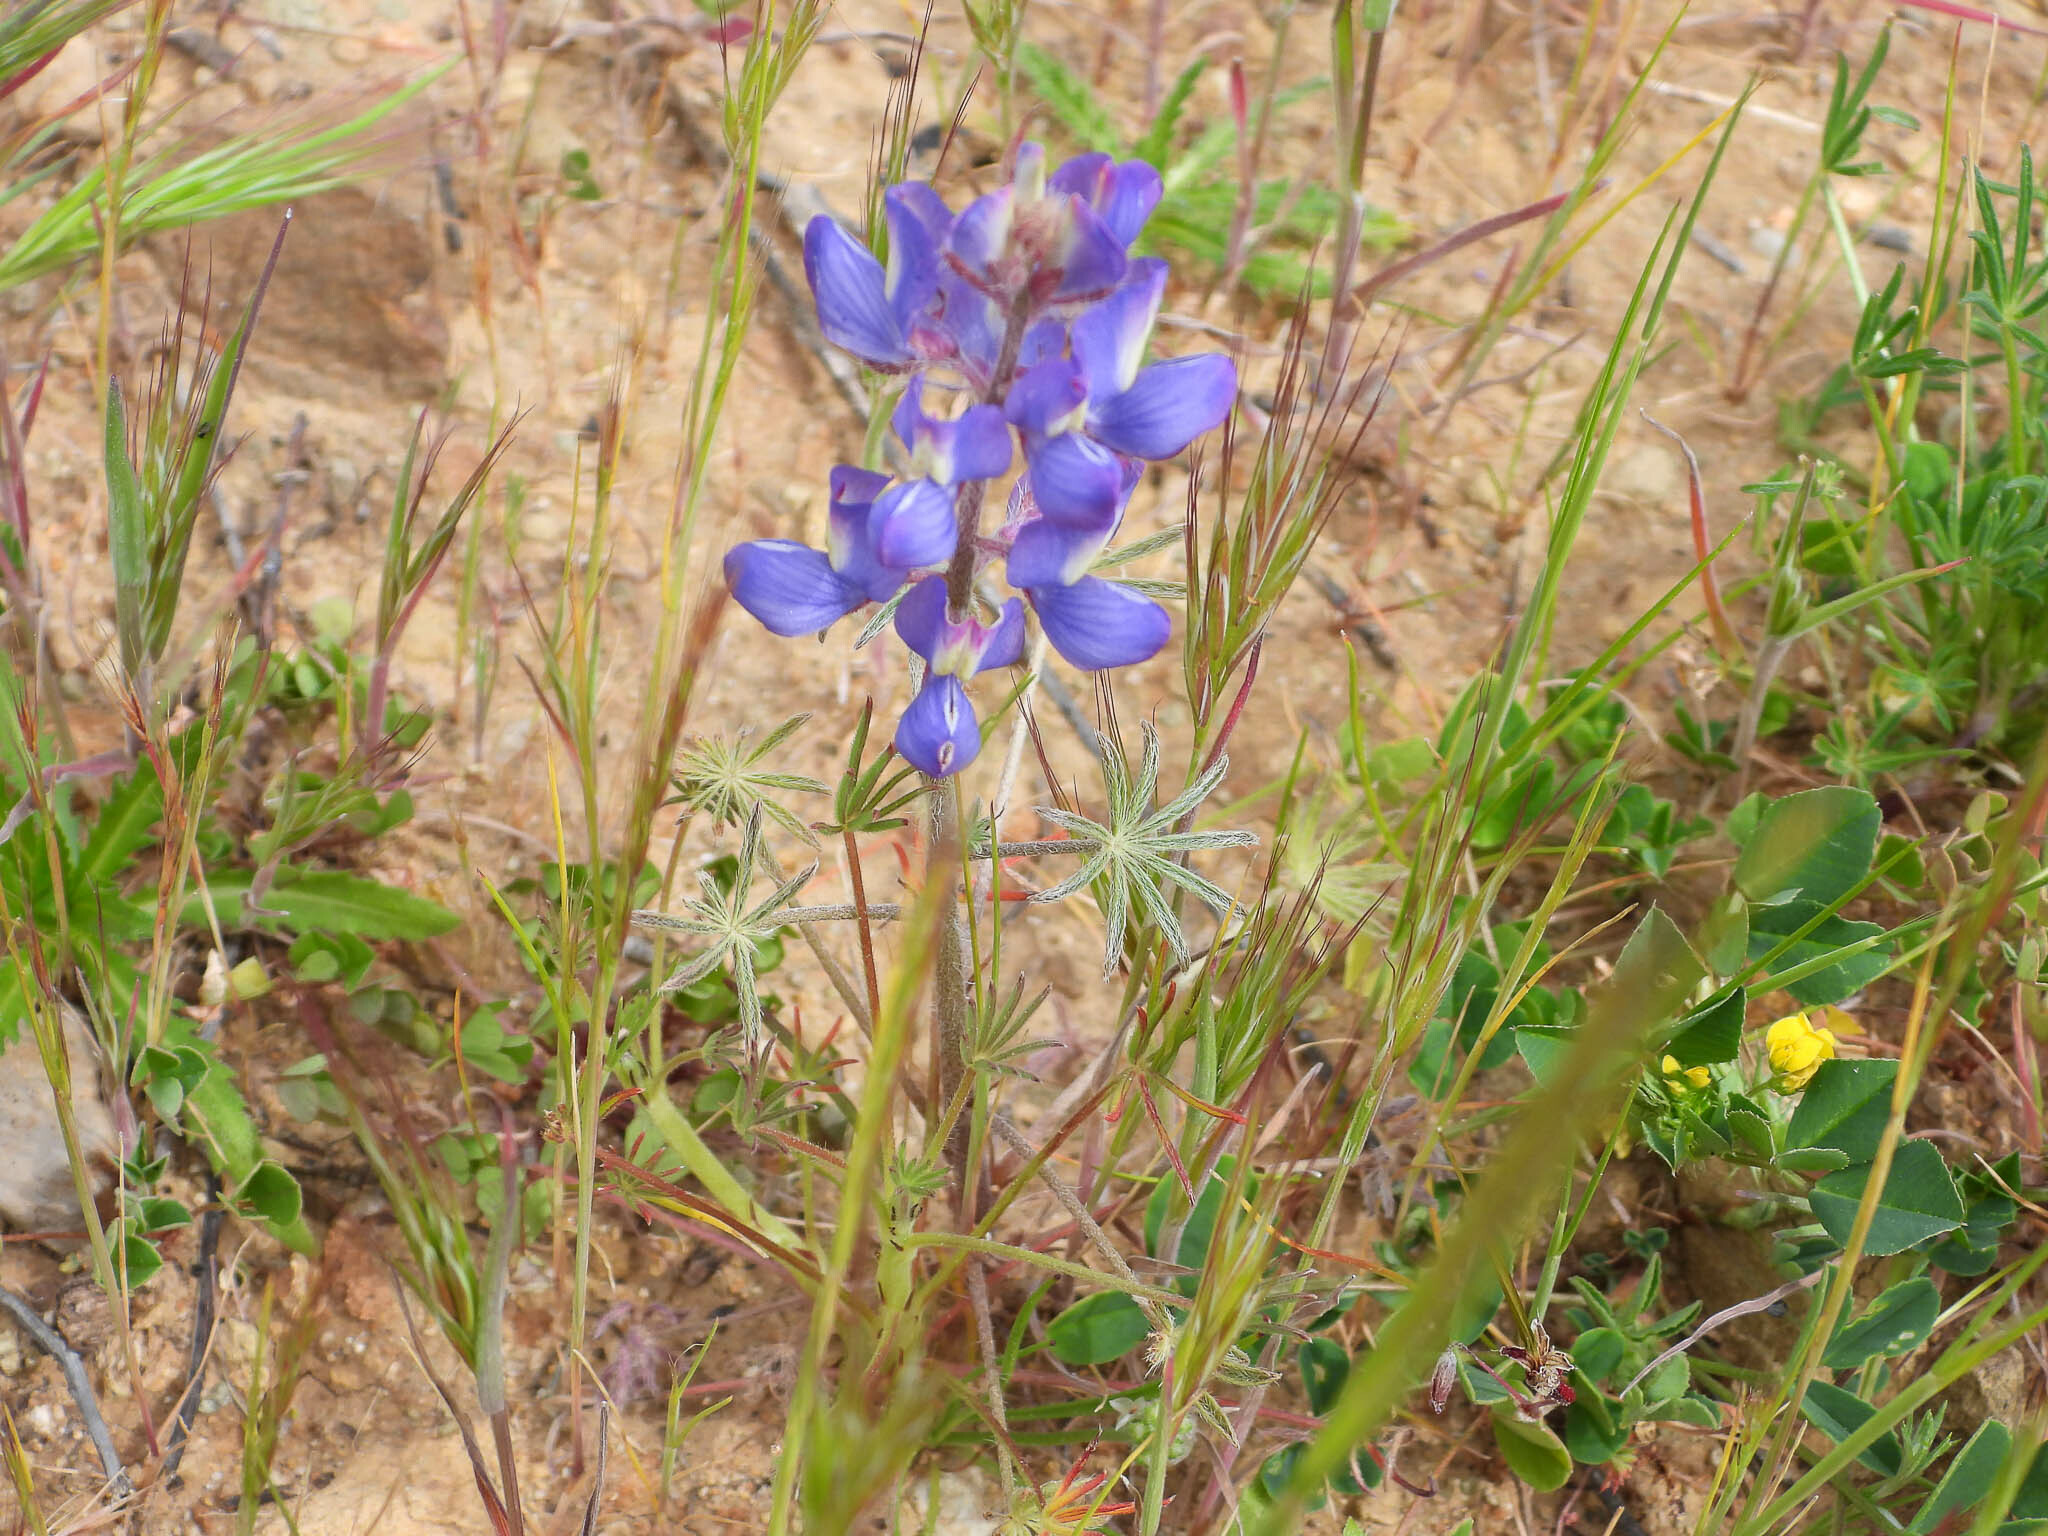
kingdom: Plantae
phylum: Tracheophyta
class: Magnoliopsida
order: Fabales
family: Fabaceae
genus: Lupinus
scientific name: Lupinus sparsiflorus
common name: Coulter's lupine
